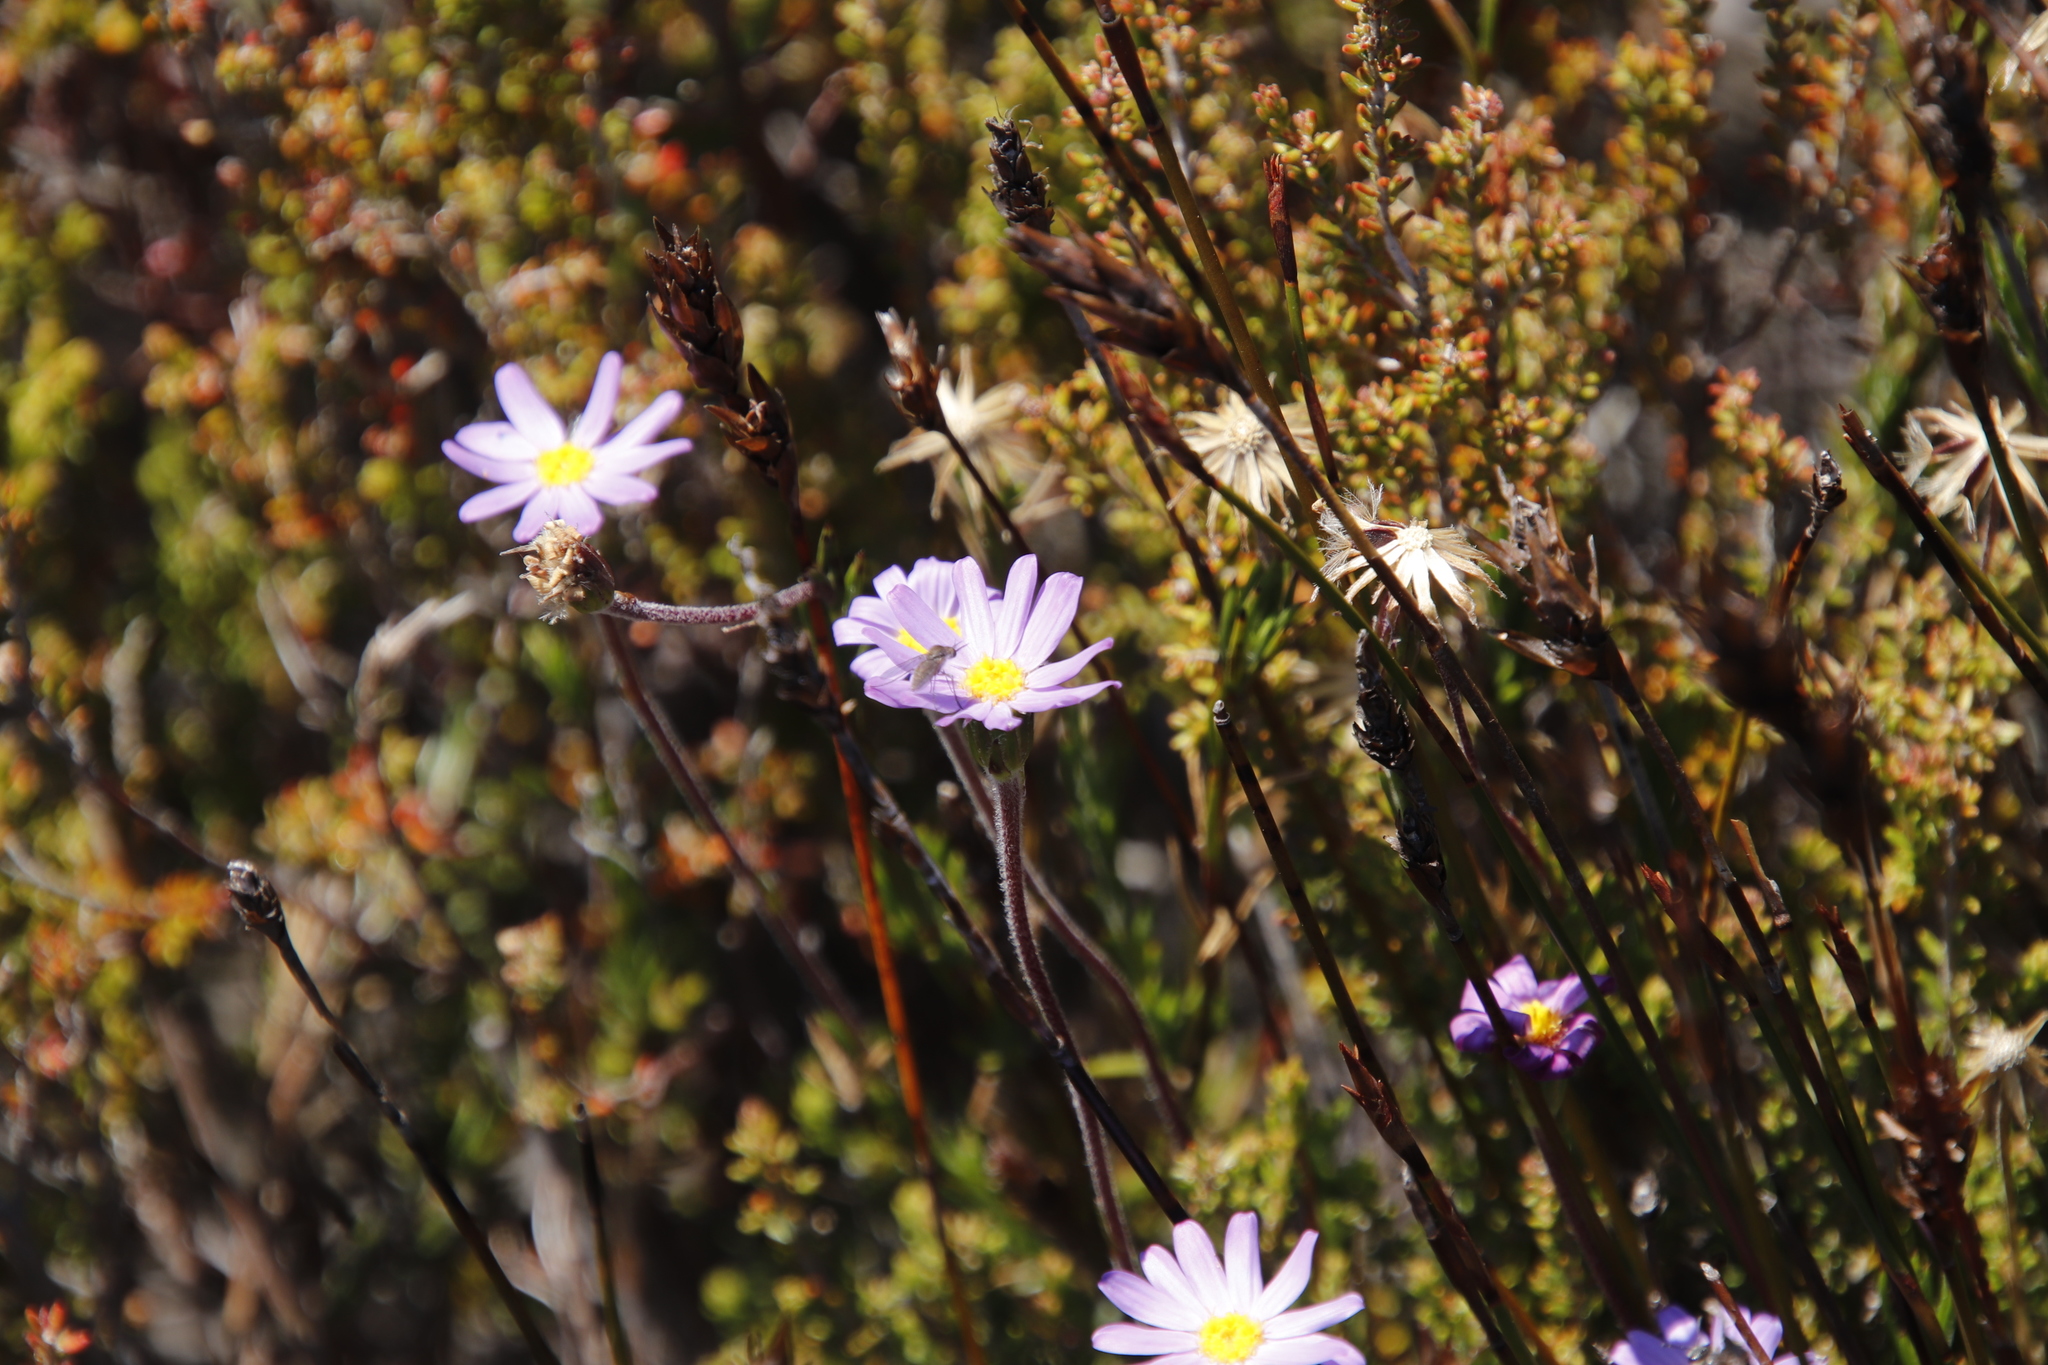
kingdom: Plantae
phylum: Tracheophyta
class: Magnoliopsida
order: Asterales
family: Asteraceae
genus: Zyrphelis
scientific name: Zyrphelis taxifolia
